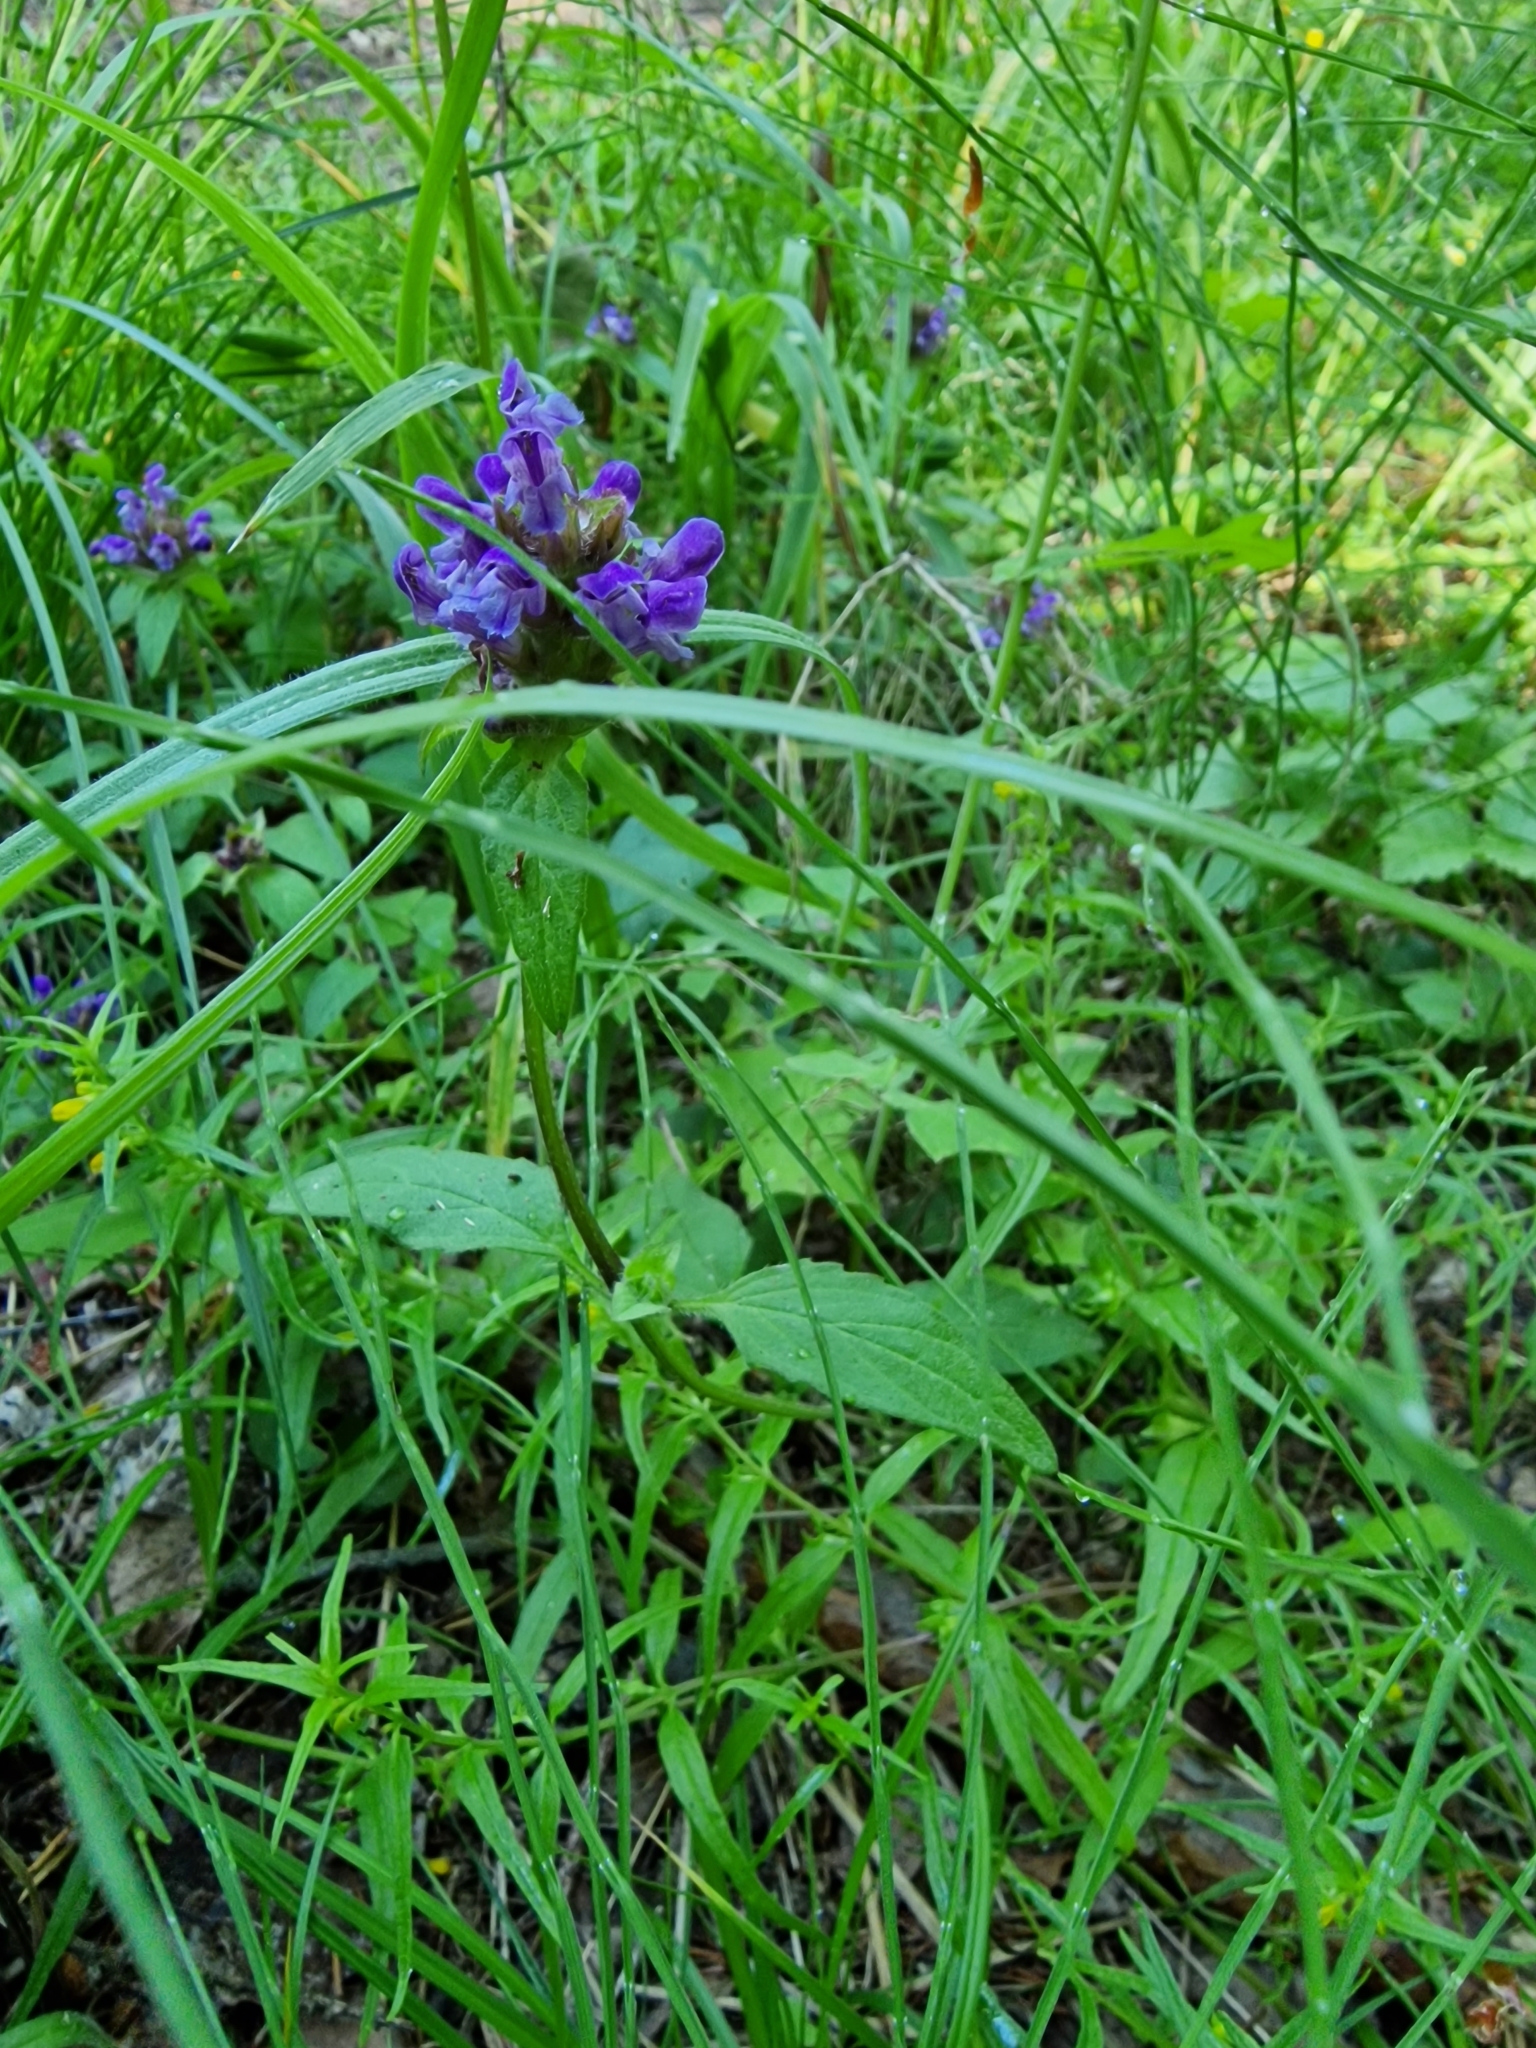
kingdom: Plantae
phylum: Tracheophyta
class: Magnoliopsida
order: Lamiales
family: Lamiaceae
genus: Prunella
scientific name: Prunella vulgaris
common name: Heal-all
